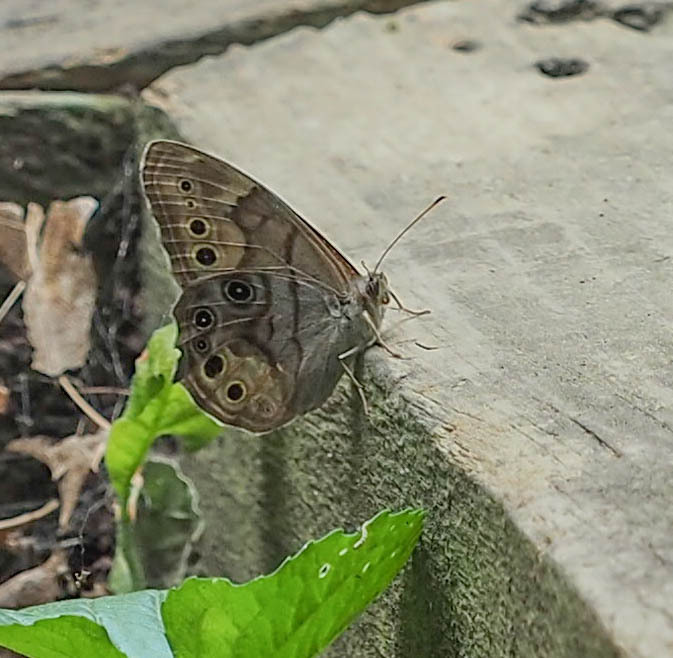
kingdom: Animalia
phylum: Arthropoda
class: Insecta
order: Lepidoptera
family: Nymphalidae
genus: Lethe
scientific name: Lethe anthedon
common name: Northern pearly-eye
